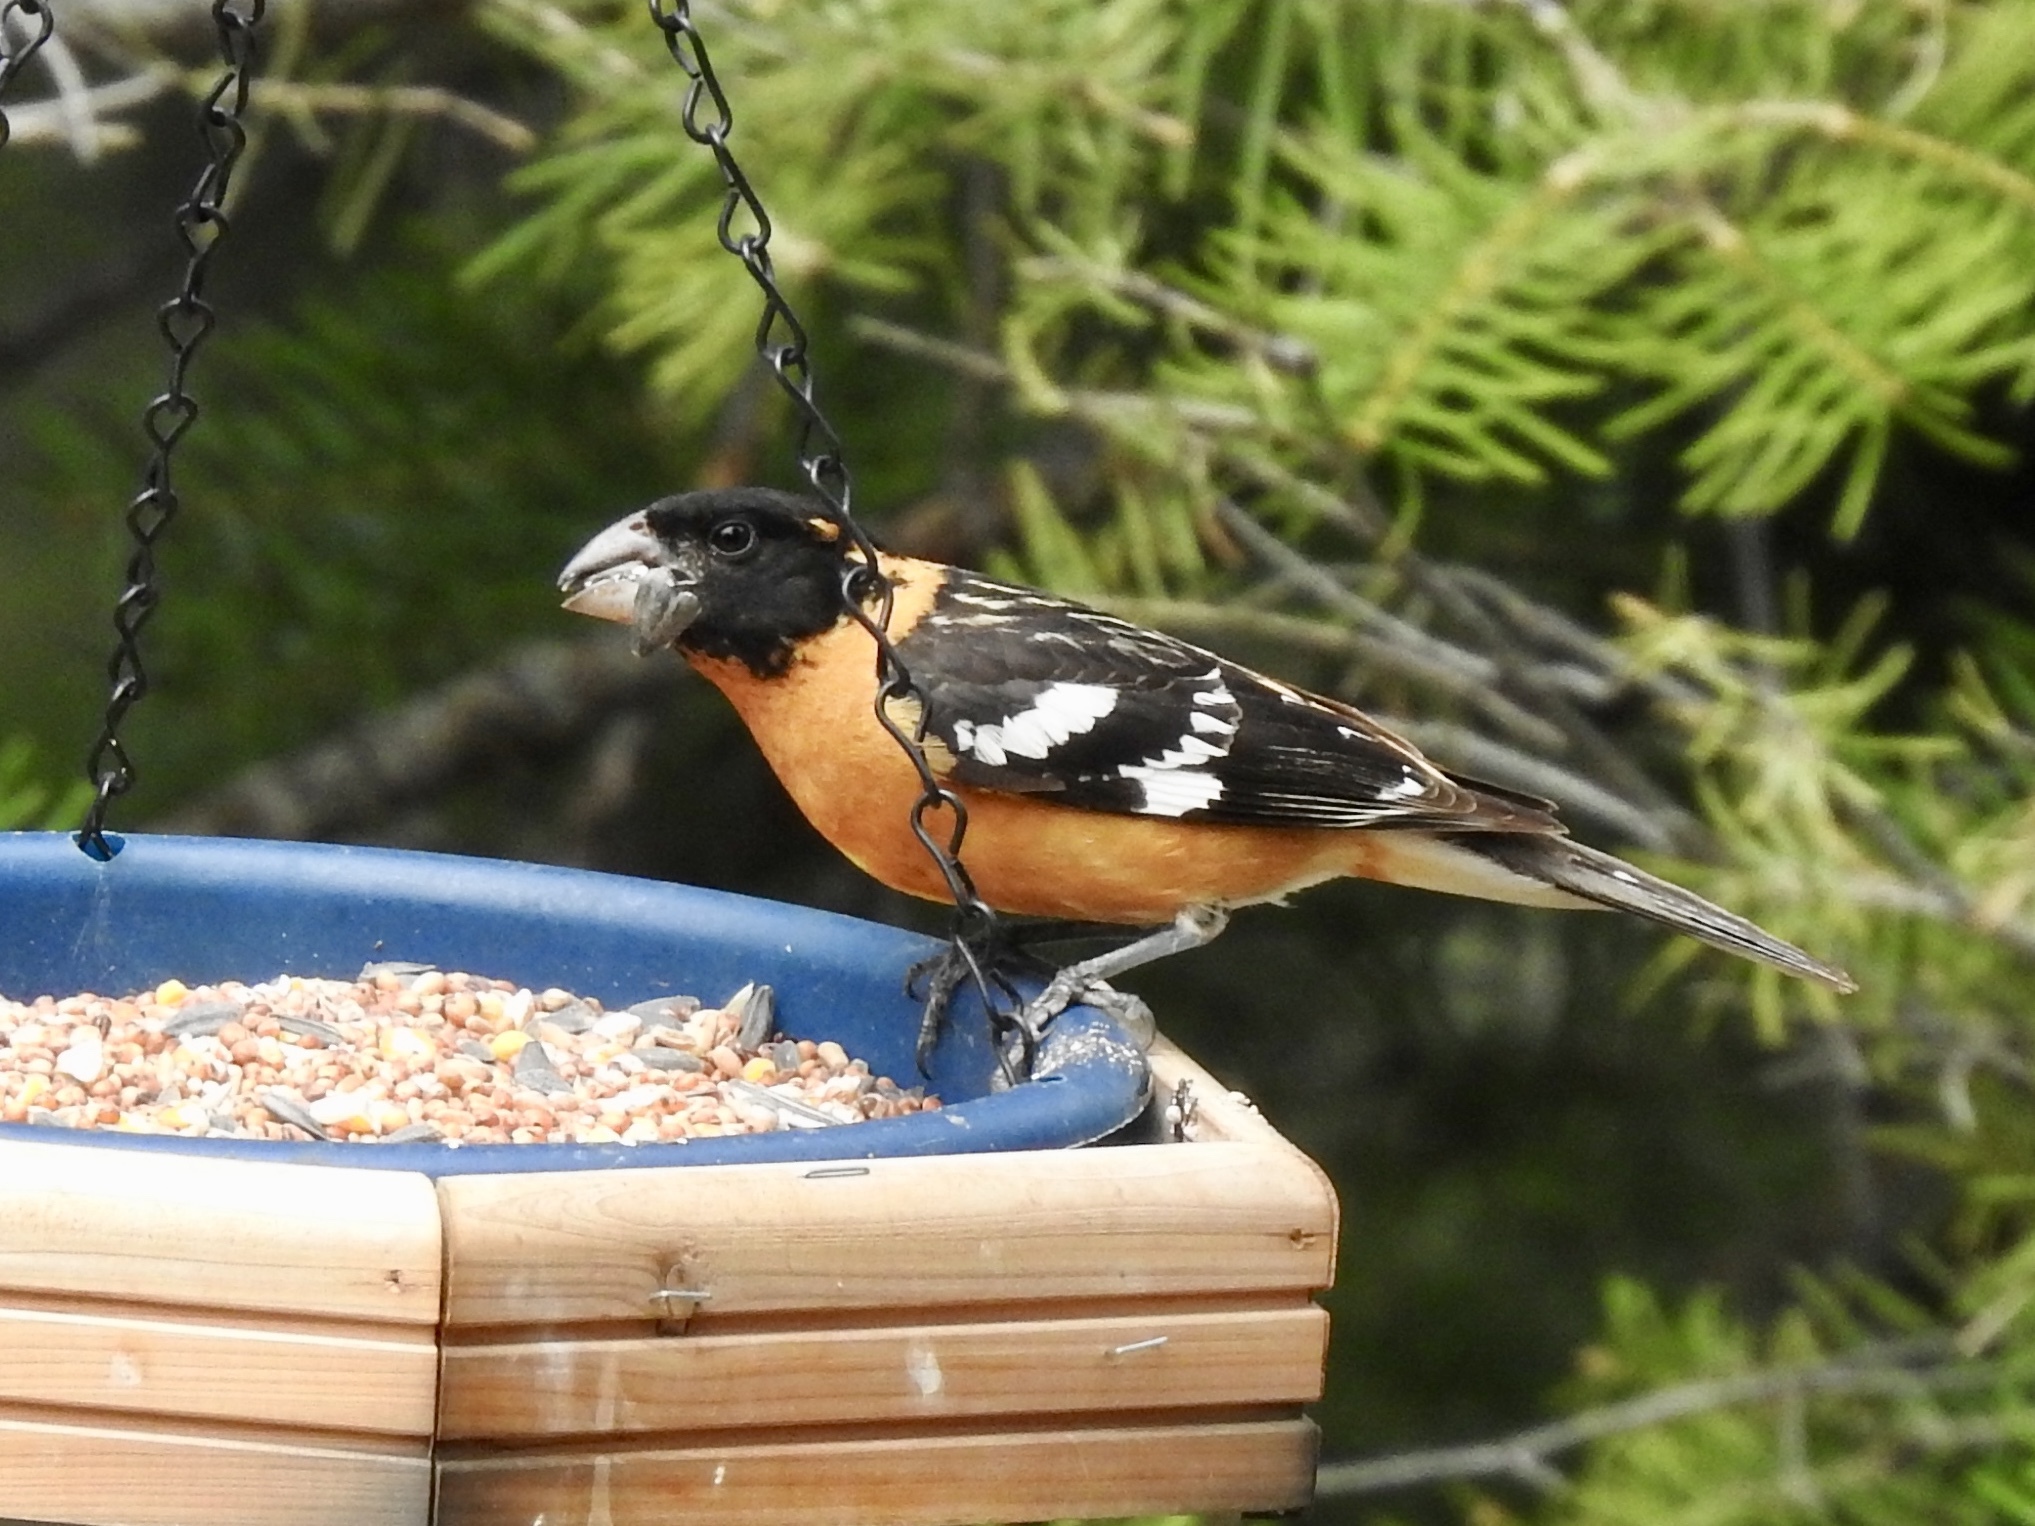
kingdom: Animalia
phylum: Chordata
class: Aves
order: Passeriformes
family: Cardinalidae
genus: Pheucticus
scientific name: Pheucticus melanocephalus
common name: Black-headed grosbeak
